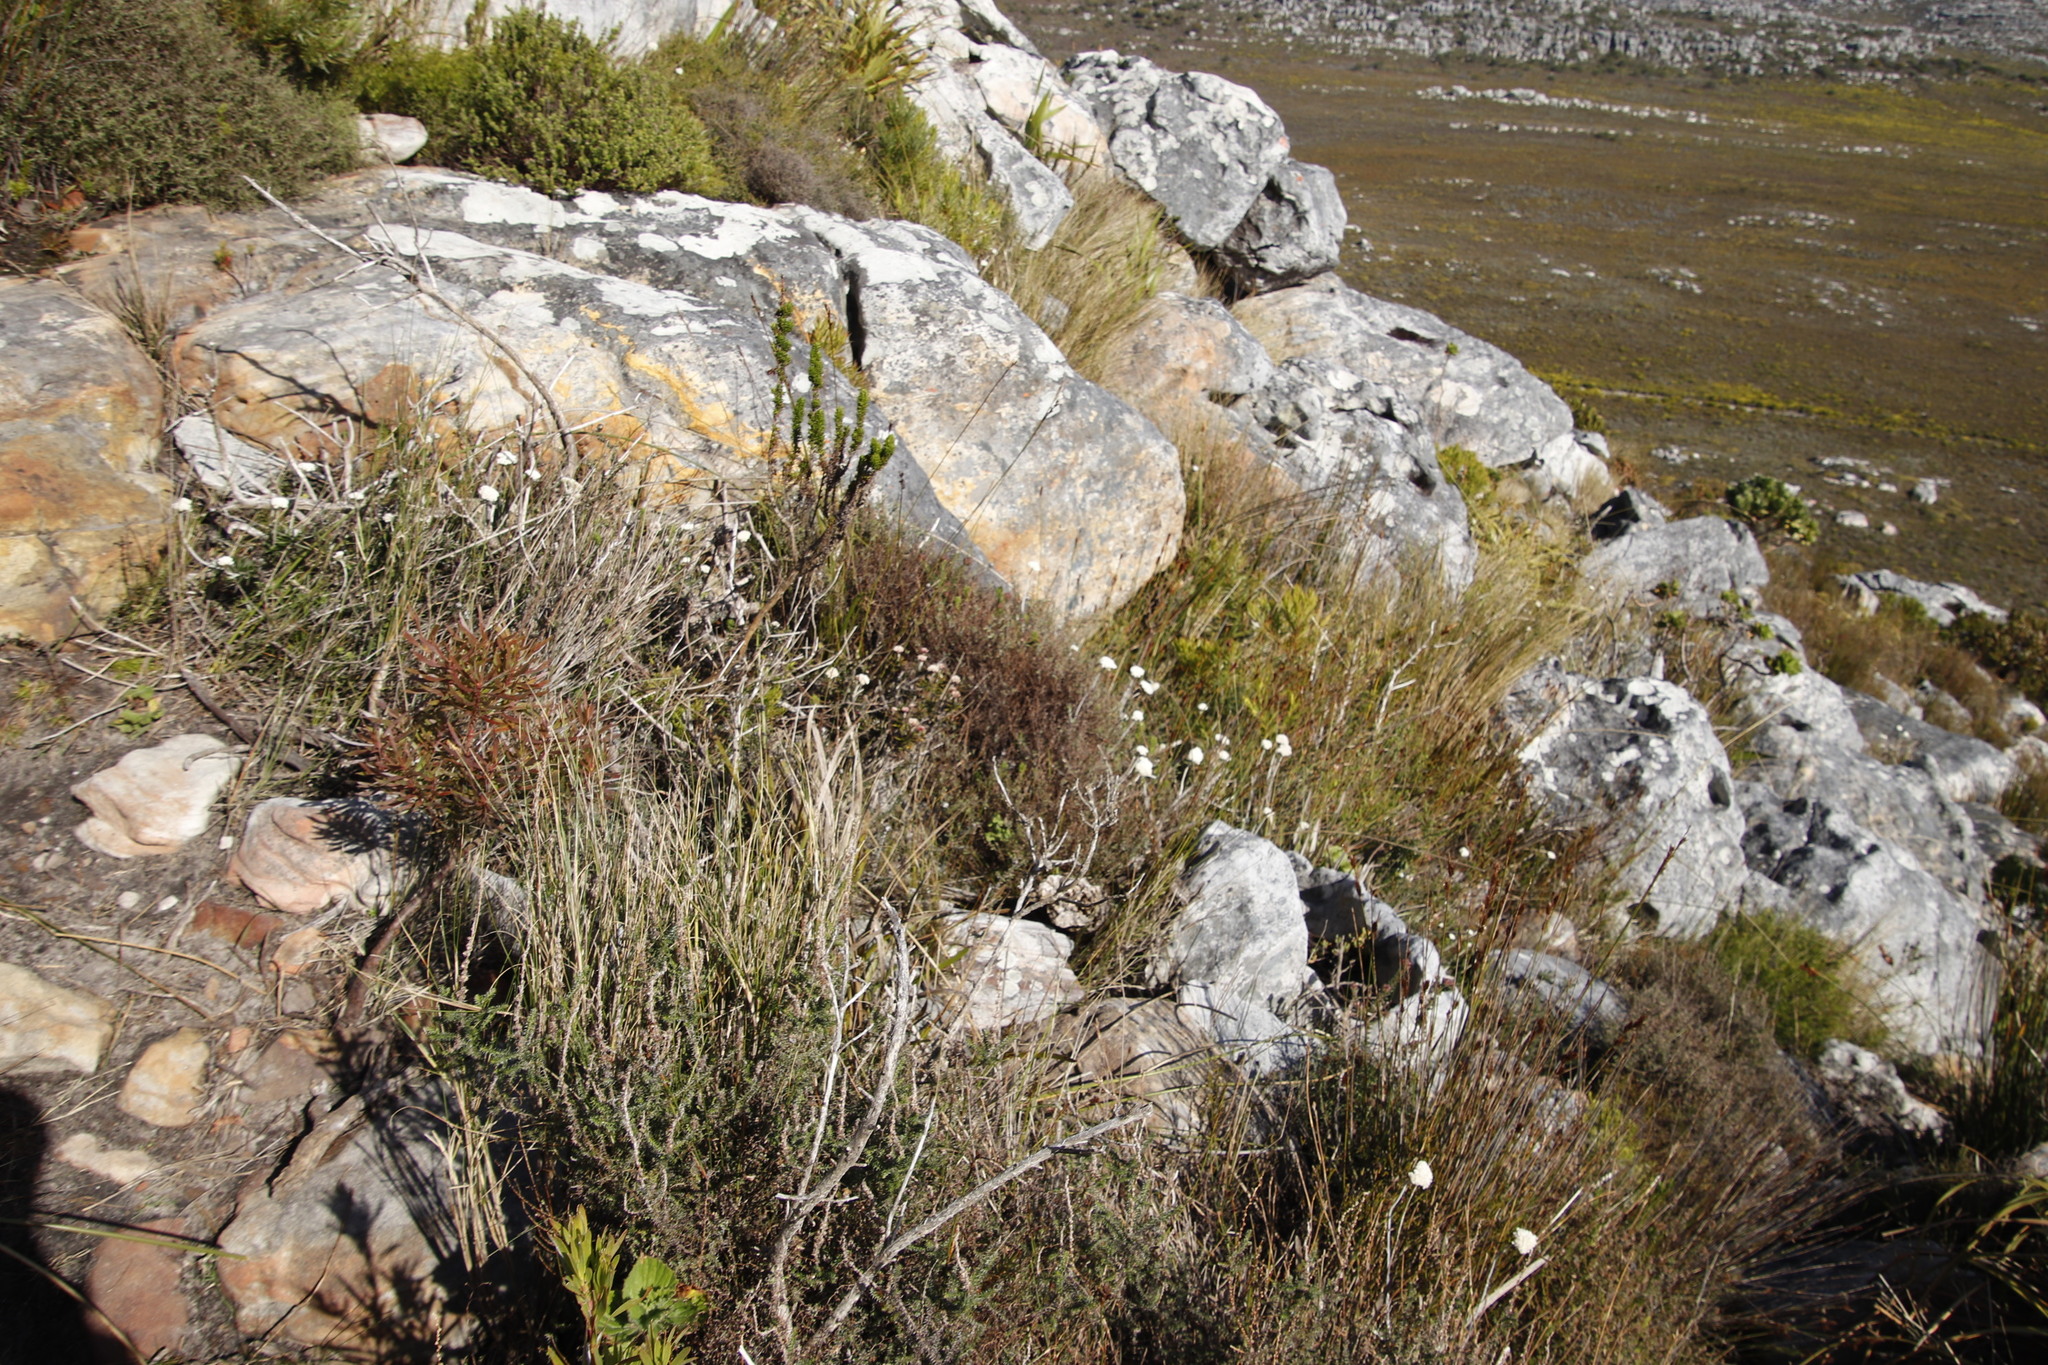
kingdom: Plantae
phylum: Tracheophyta
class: Magnoliopsida
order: Asterales
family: Asteraceae
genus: Anaxeton
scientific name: Anaxeton arborescens
